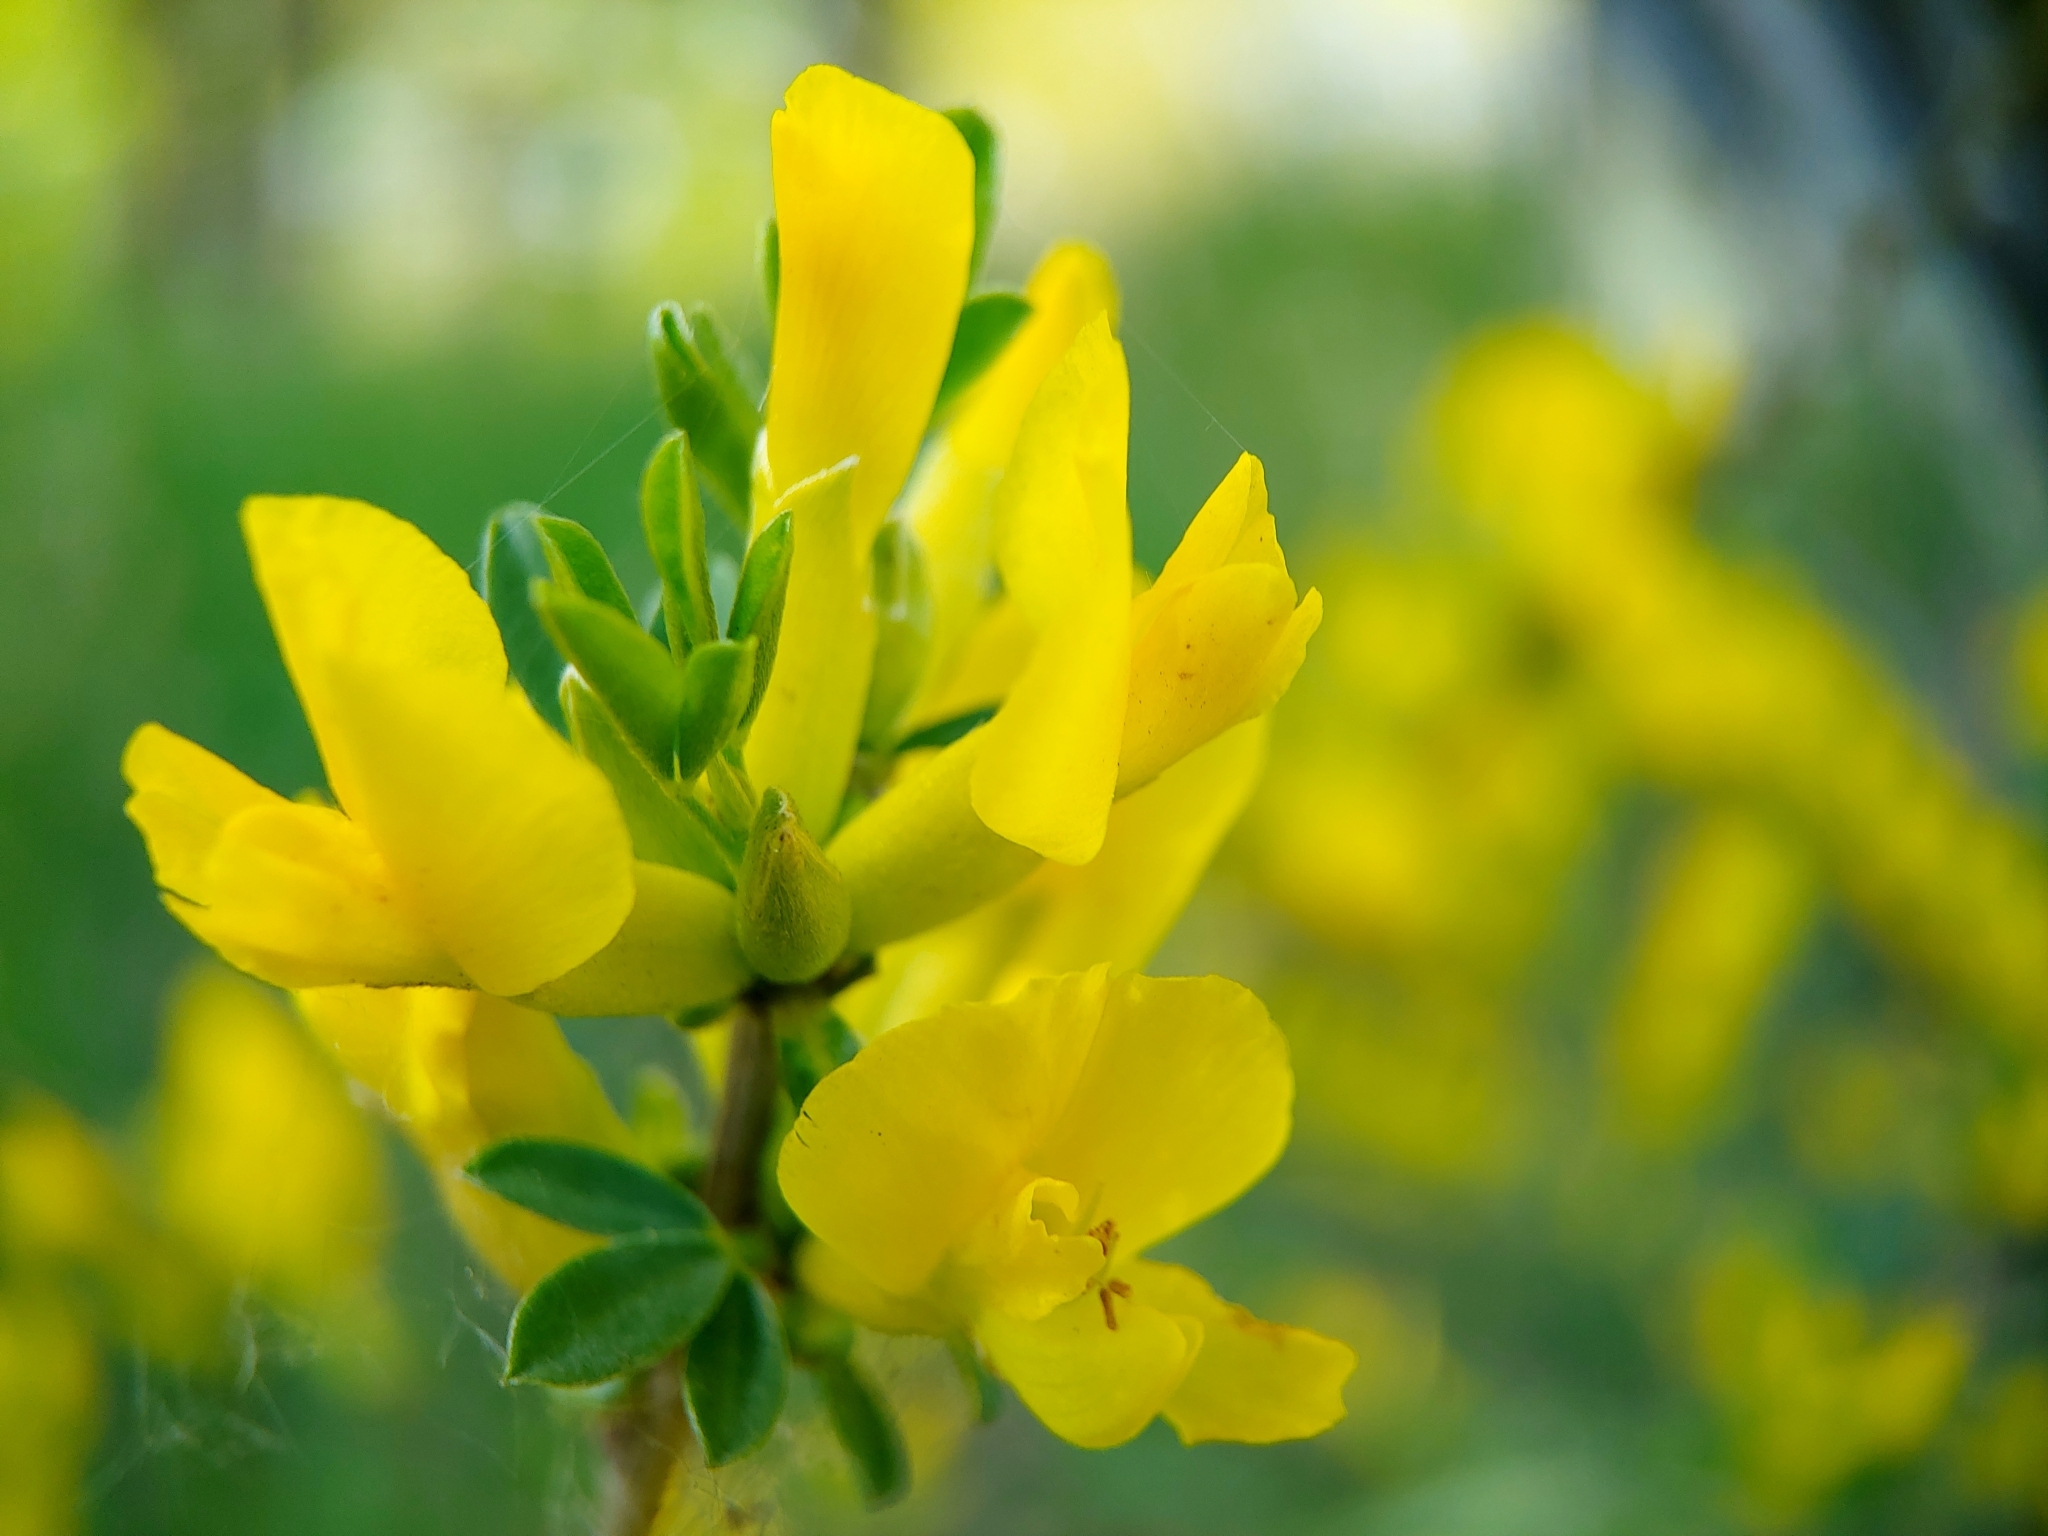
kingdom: Plantae
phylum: Tracheophyta
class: Magnoliopsida
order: Fabales
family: Fabaceae
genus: Chamaecytisus
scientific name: Chamaecytisus ruthenicus
